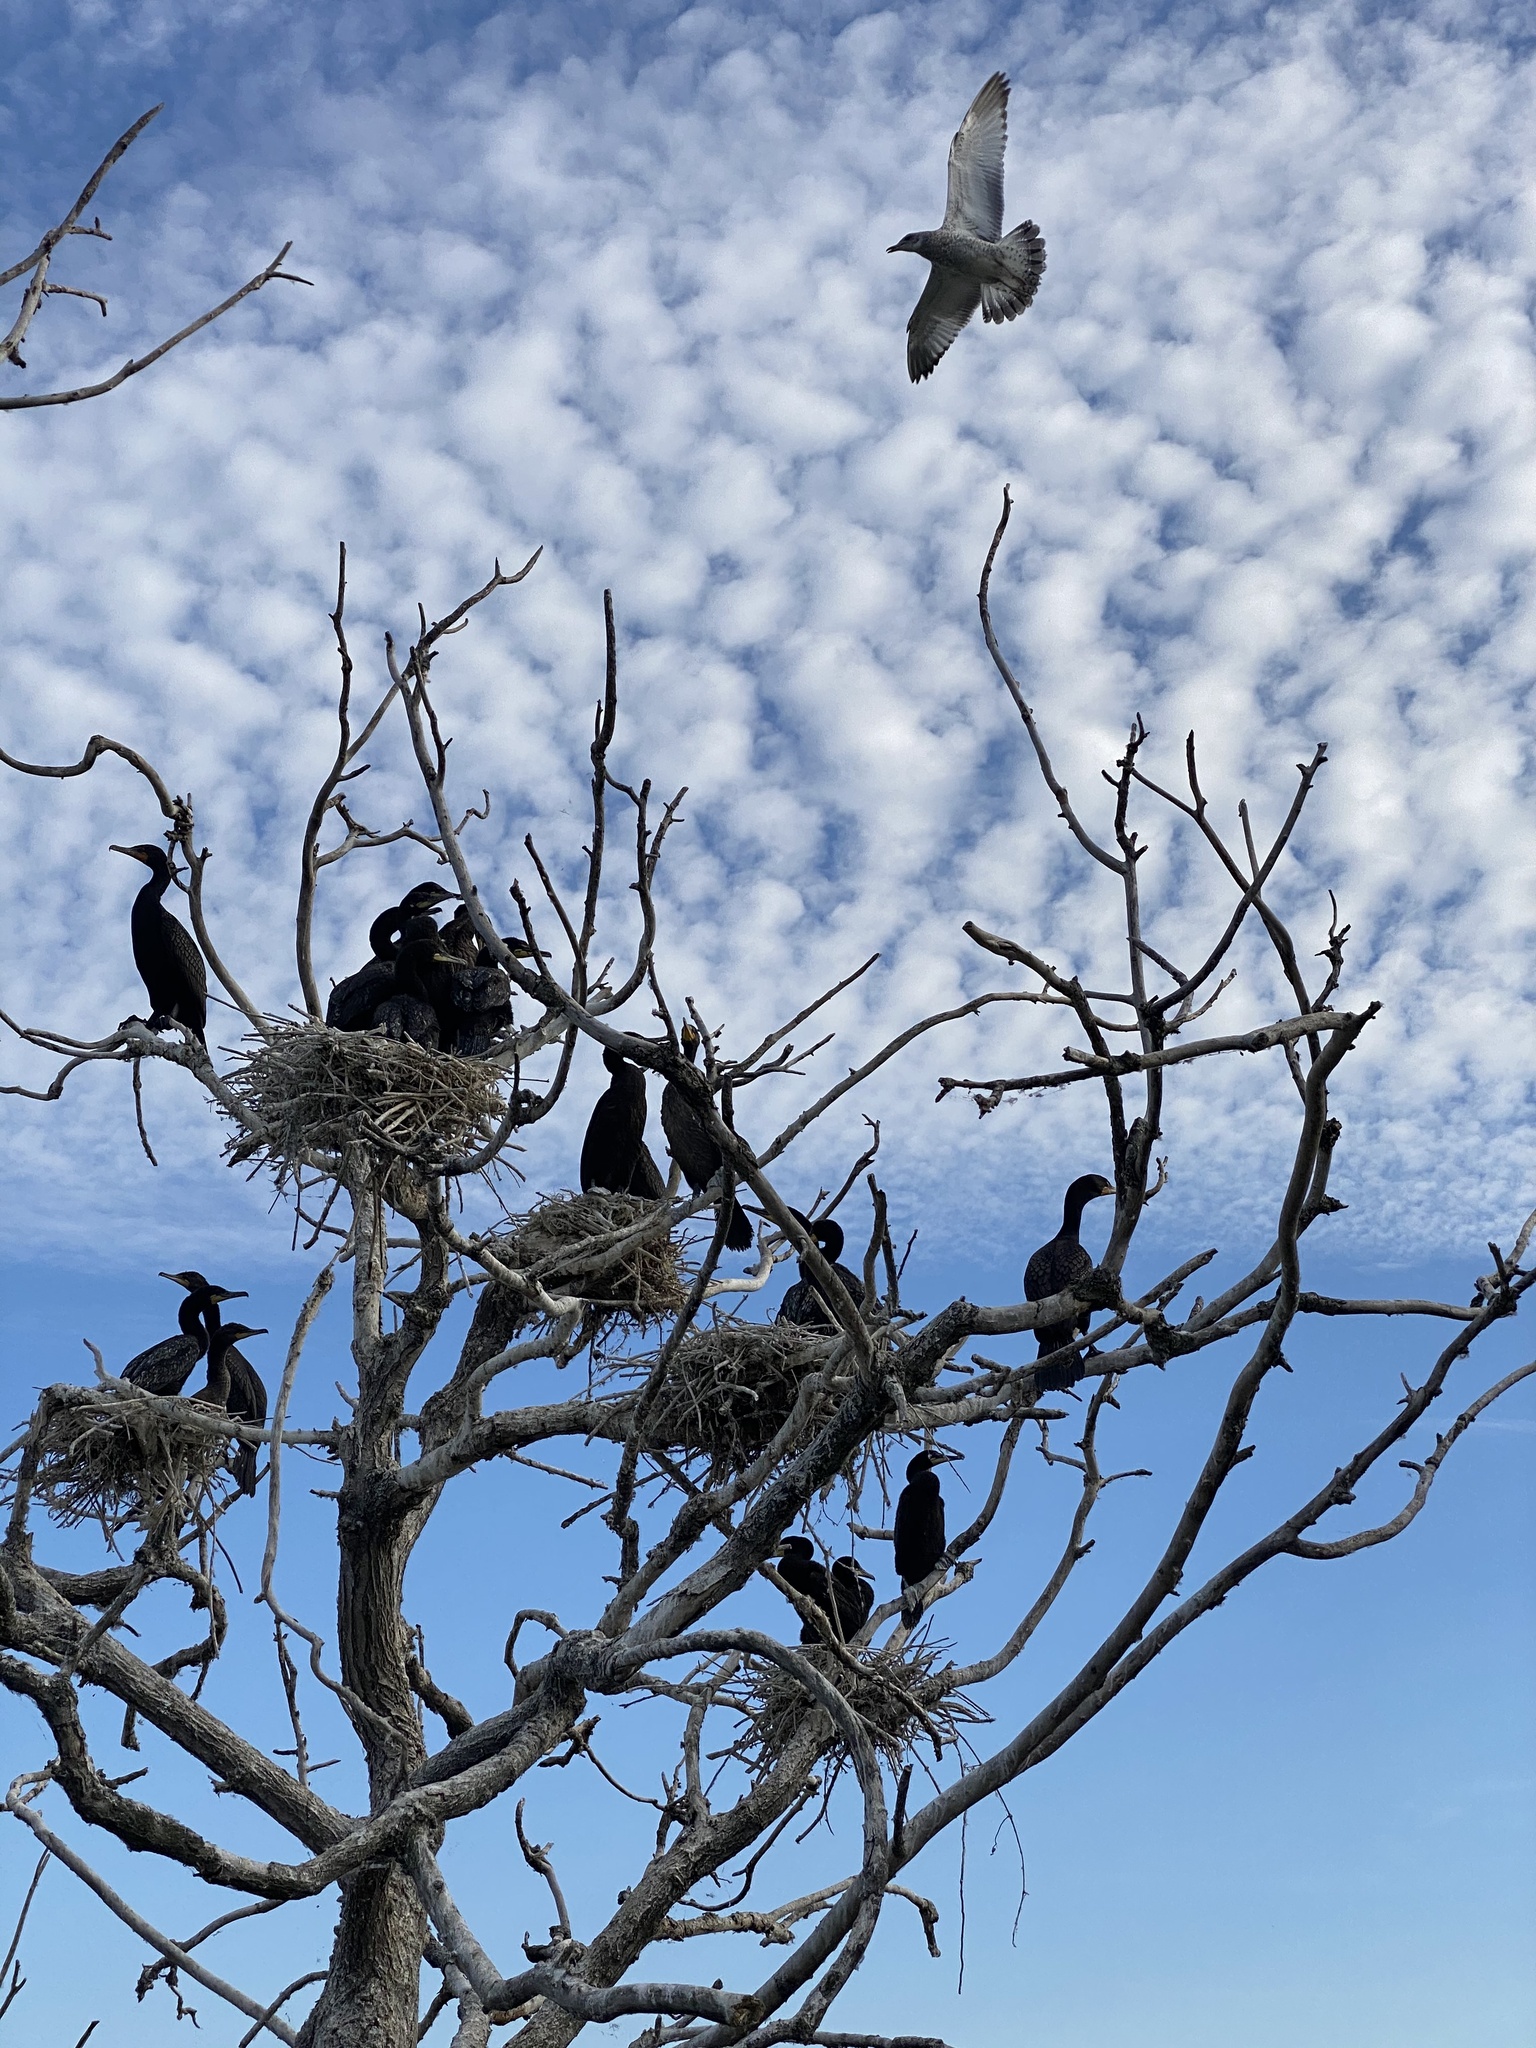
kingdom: Animalia
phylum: Chordata
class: Aves
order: Suliformes
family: Phalacrocoracidae
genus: Phalacrocorax
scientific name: Phalacrocorax auritus
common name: Double-crested cormorant
